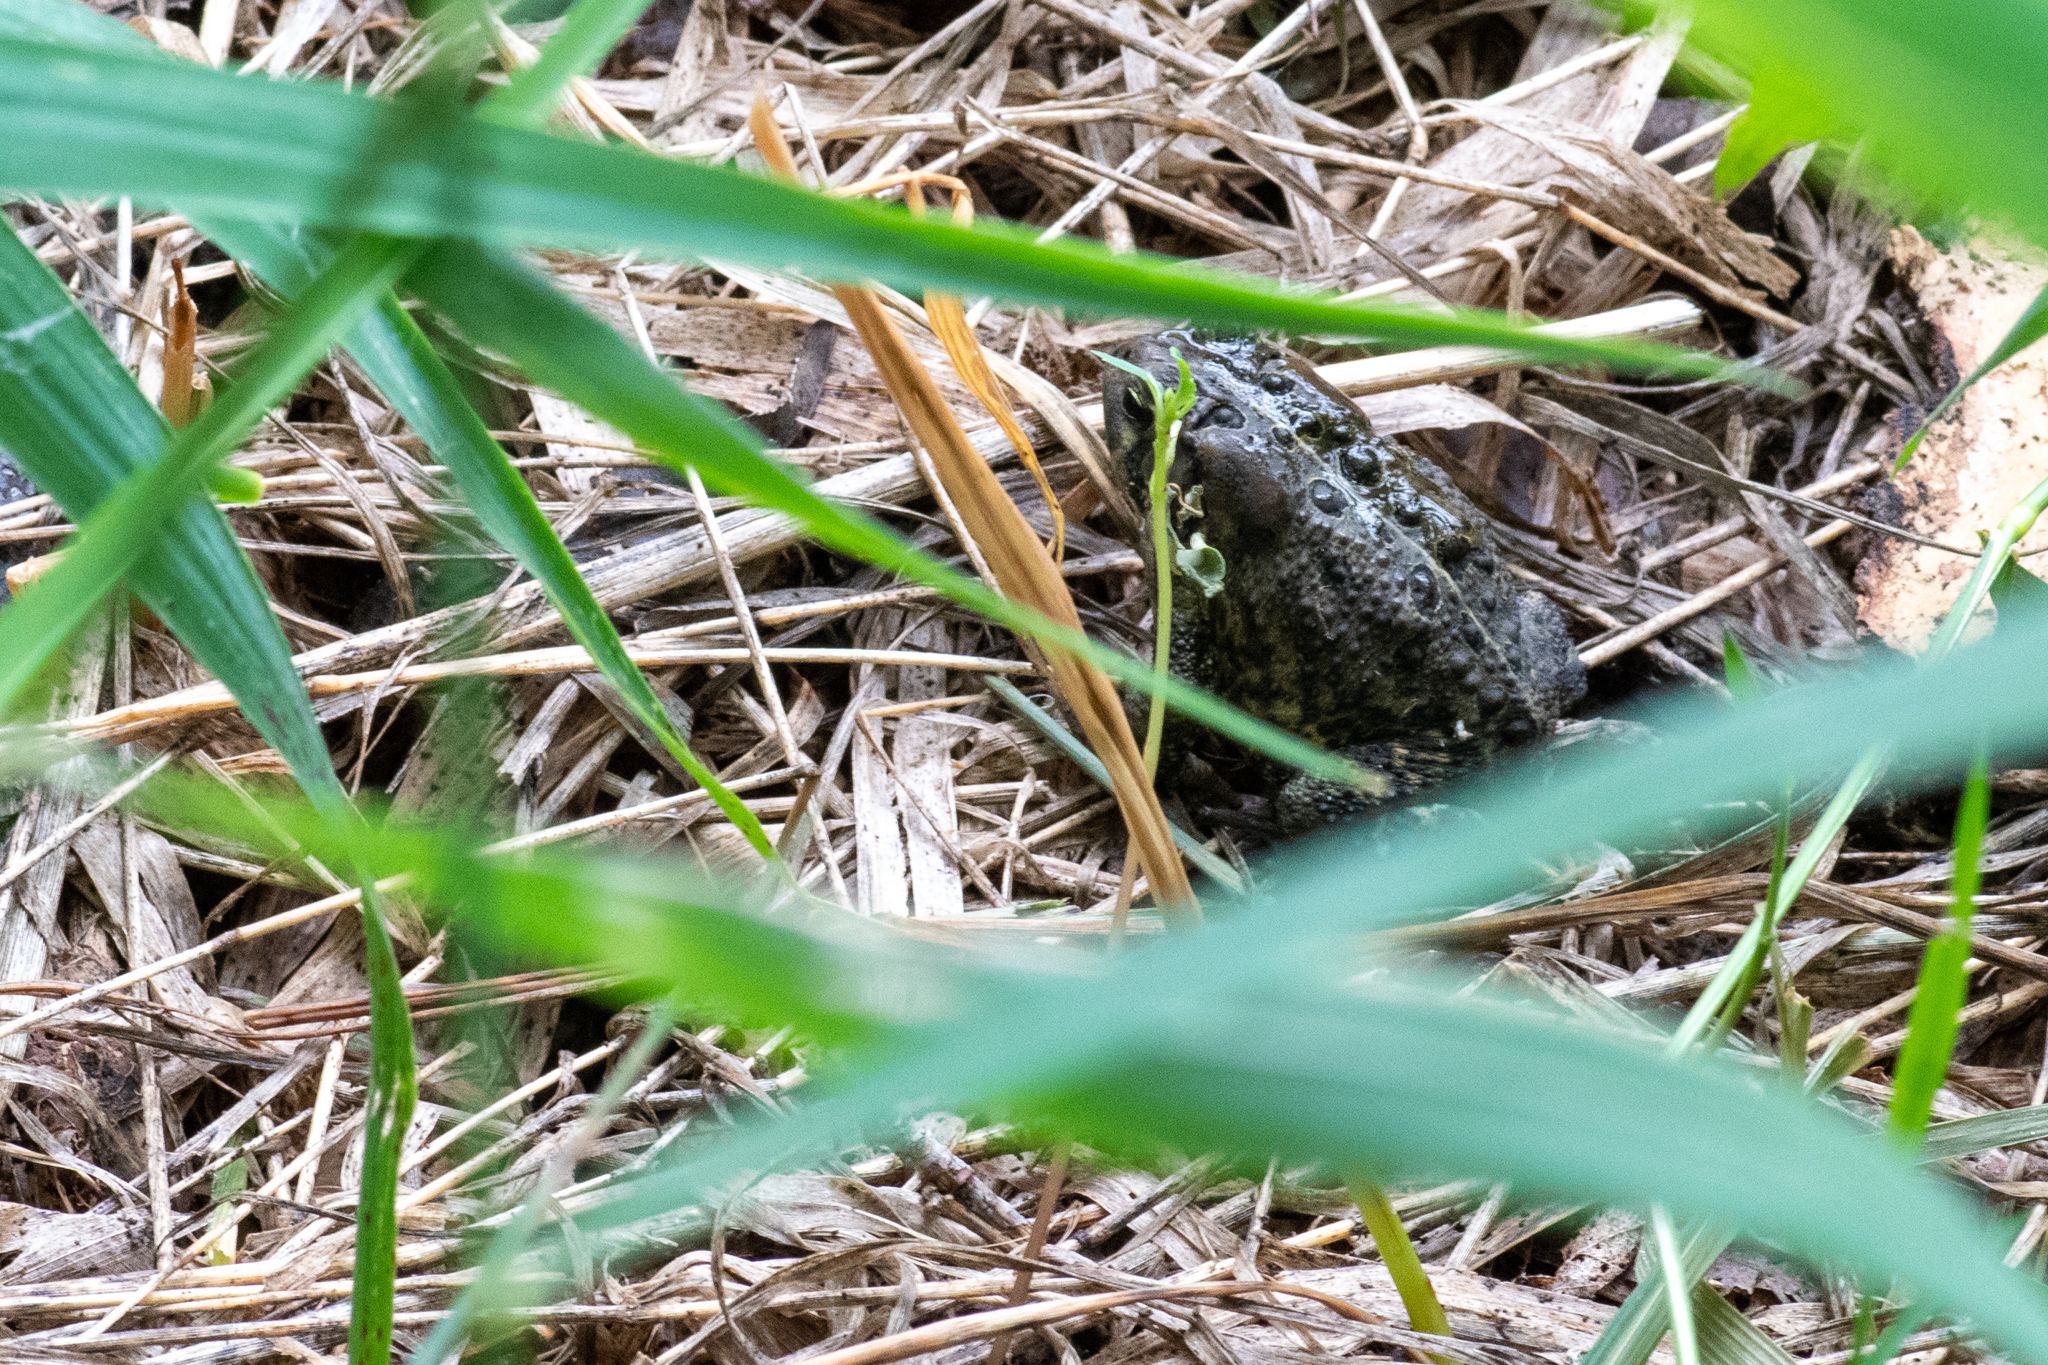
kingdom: Animalia
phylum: Chordata
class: Amphibia
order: Anura
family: Bufonidae
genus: Anaxyrus
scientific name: Anaxyrus americanus
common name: American toad
